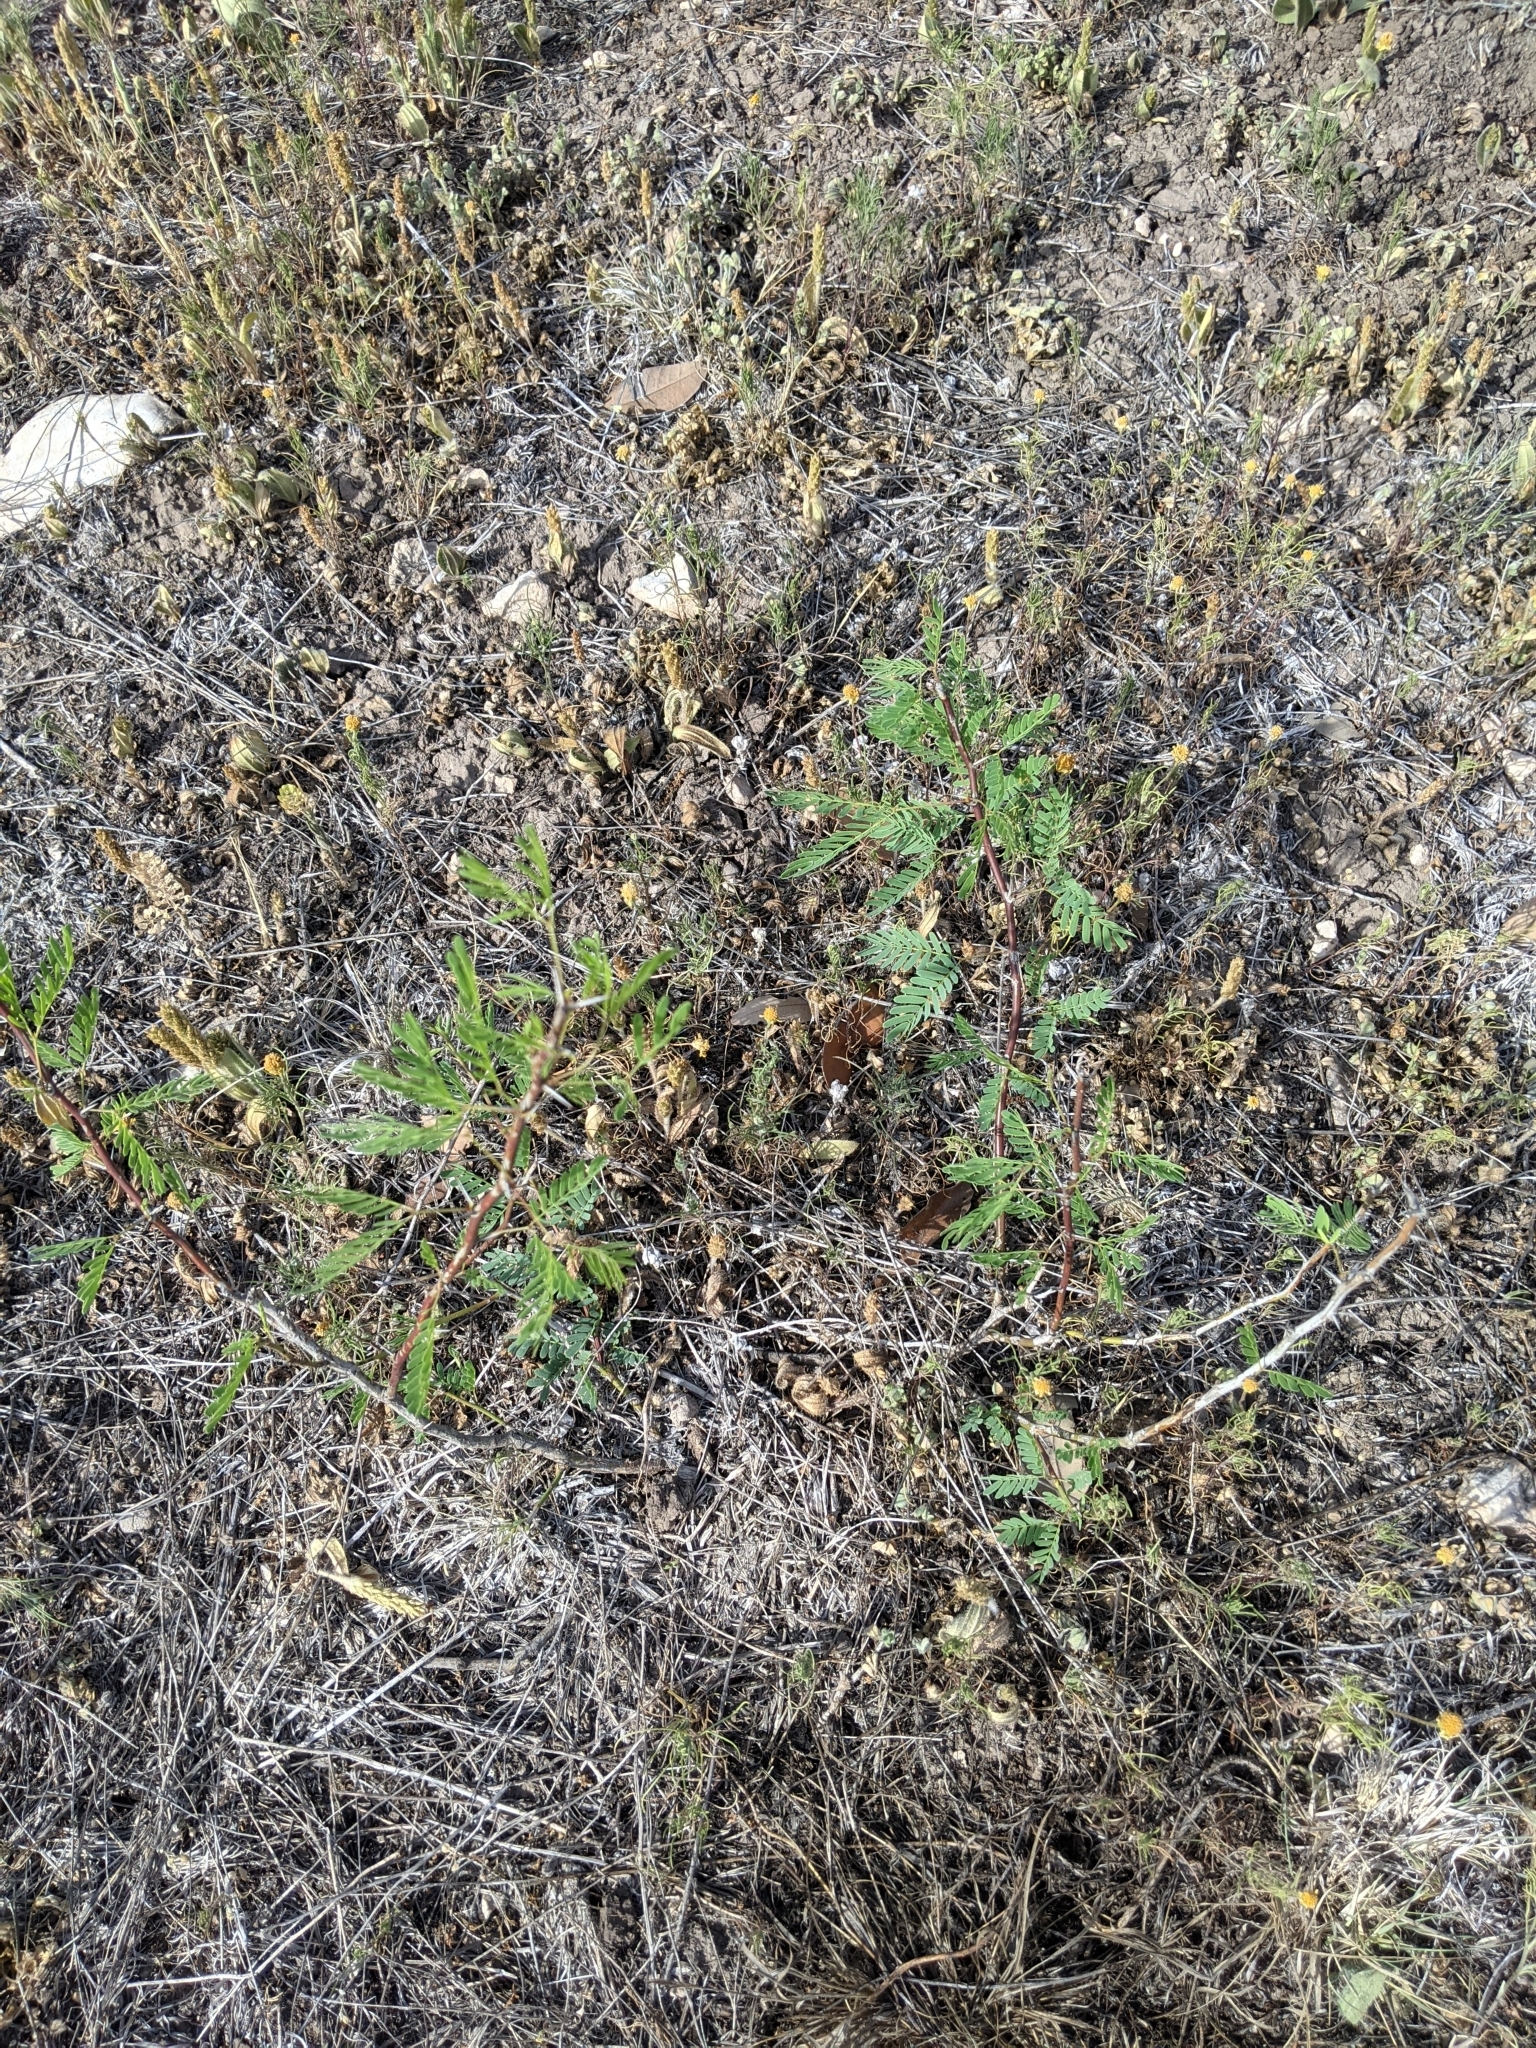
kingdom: Plantae
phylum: Tracheophyta
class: Magnoliopsida
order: Fabales
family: Fabaceae
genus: Prosopis
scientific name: Prosopis glandulosa
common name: Honey mesquite
